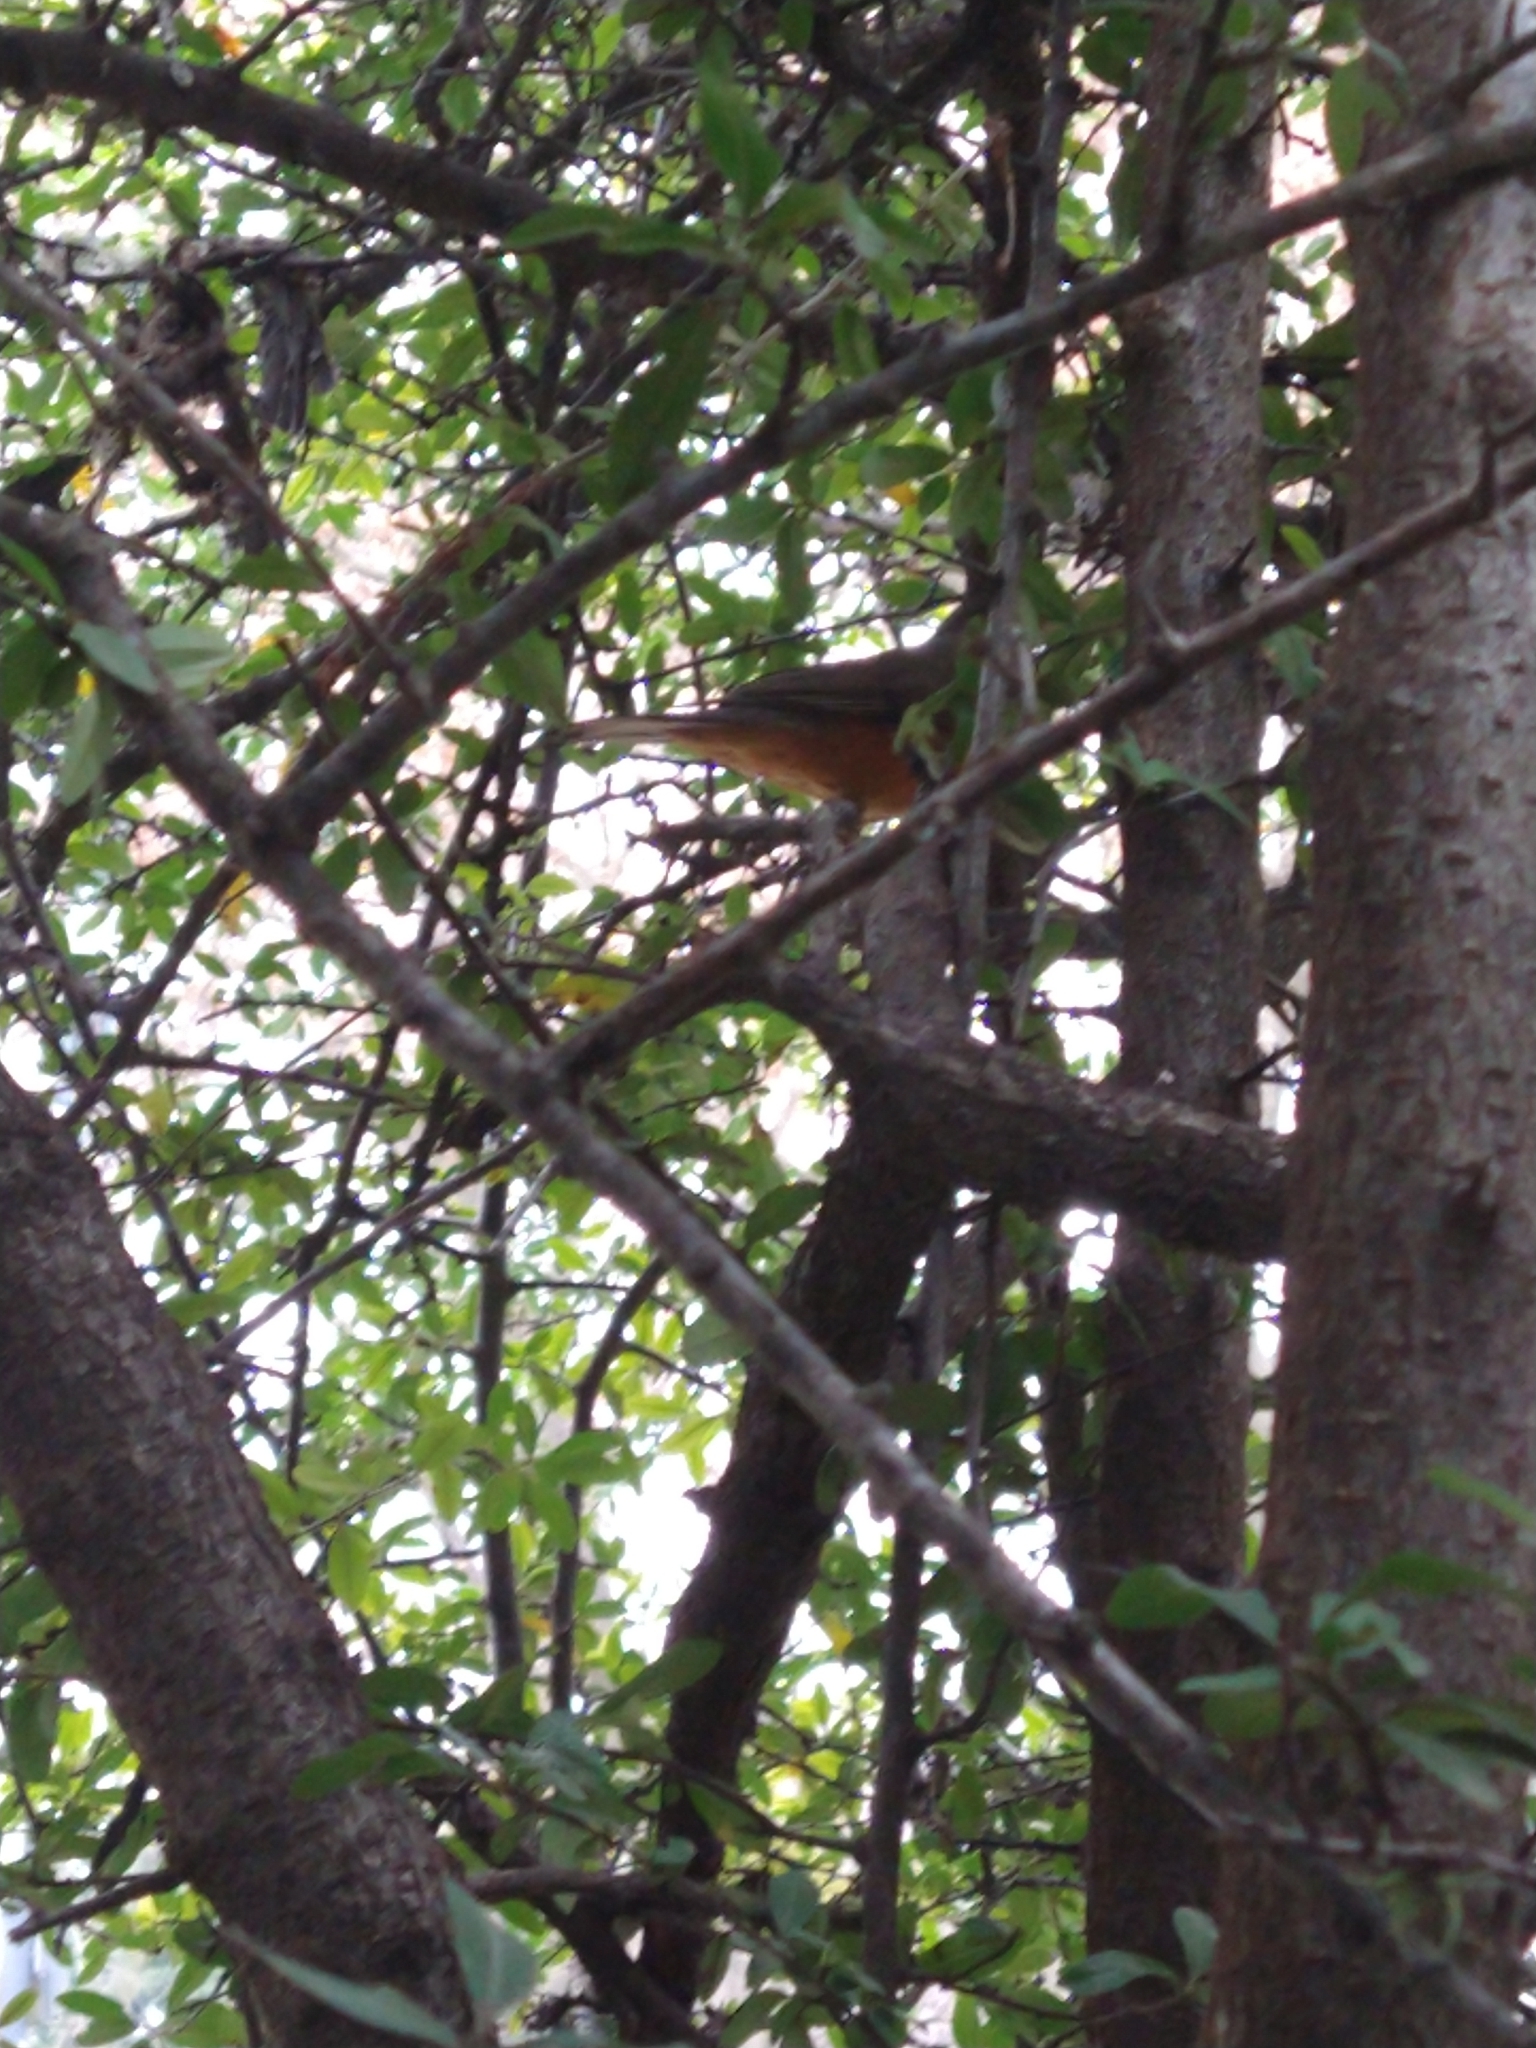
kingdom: Animalia
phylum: Chordata
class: Aves
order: Passeriformes
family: Turdidae
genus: Turdus
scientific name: Turdus rufiventris
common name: Rufous-bellied thrush
